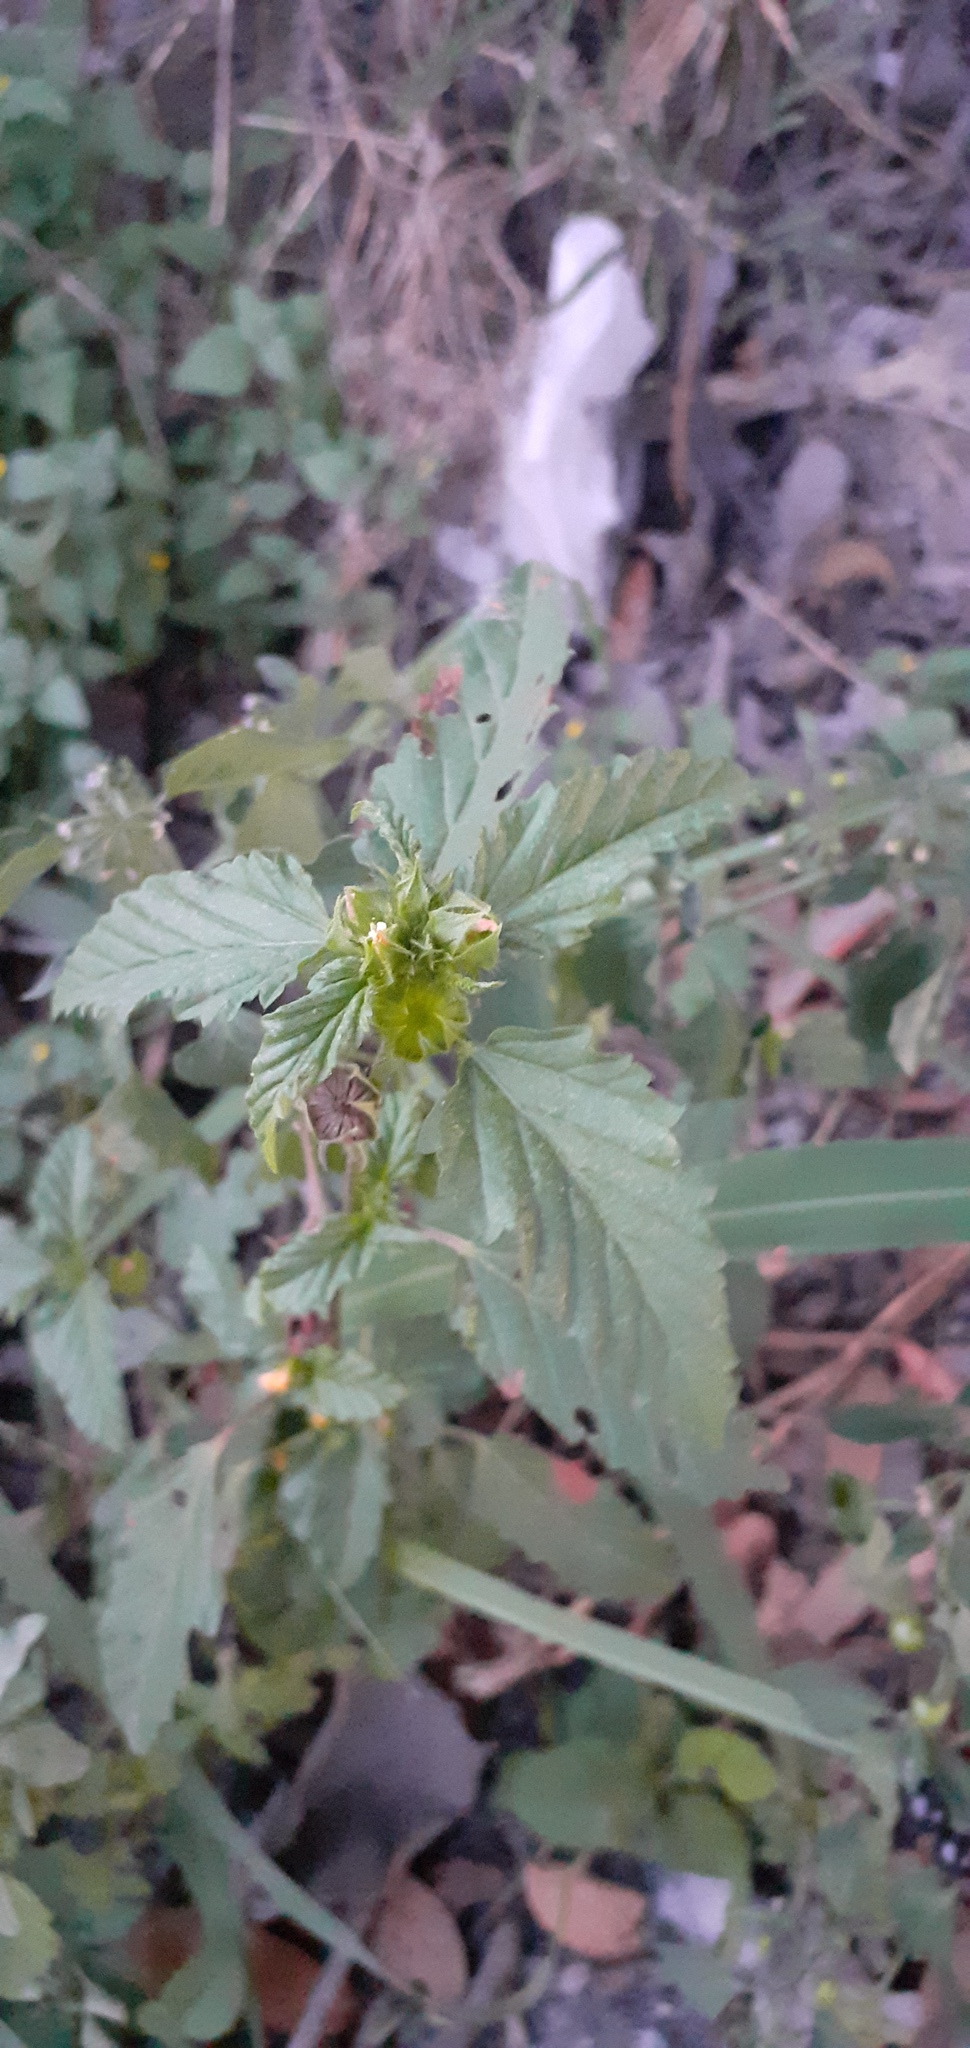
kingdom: Plantae
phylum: Tracheophyta
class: Magnoliopsida
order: Malvales
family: Malvaceae
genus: Malvastrum
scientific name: Malvastrum coromandelianum
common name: Threelobe false mallow
